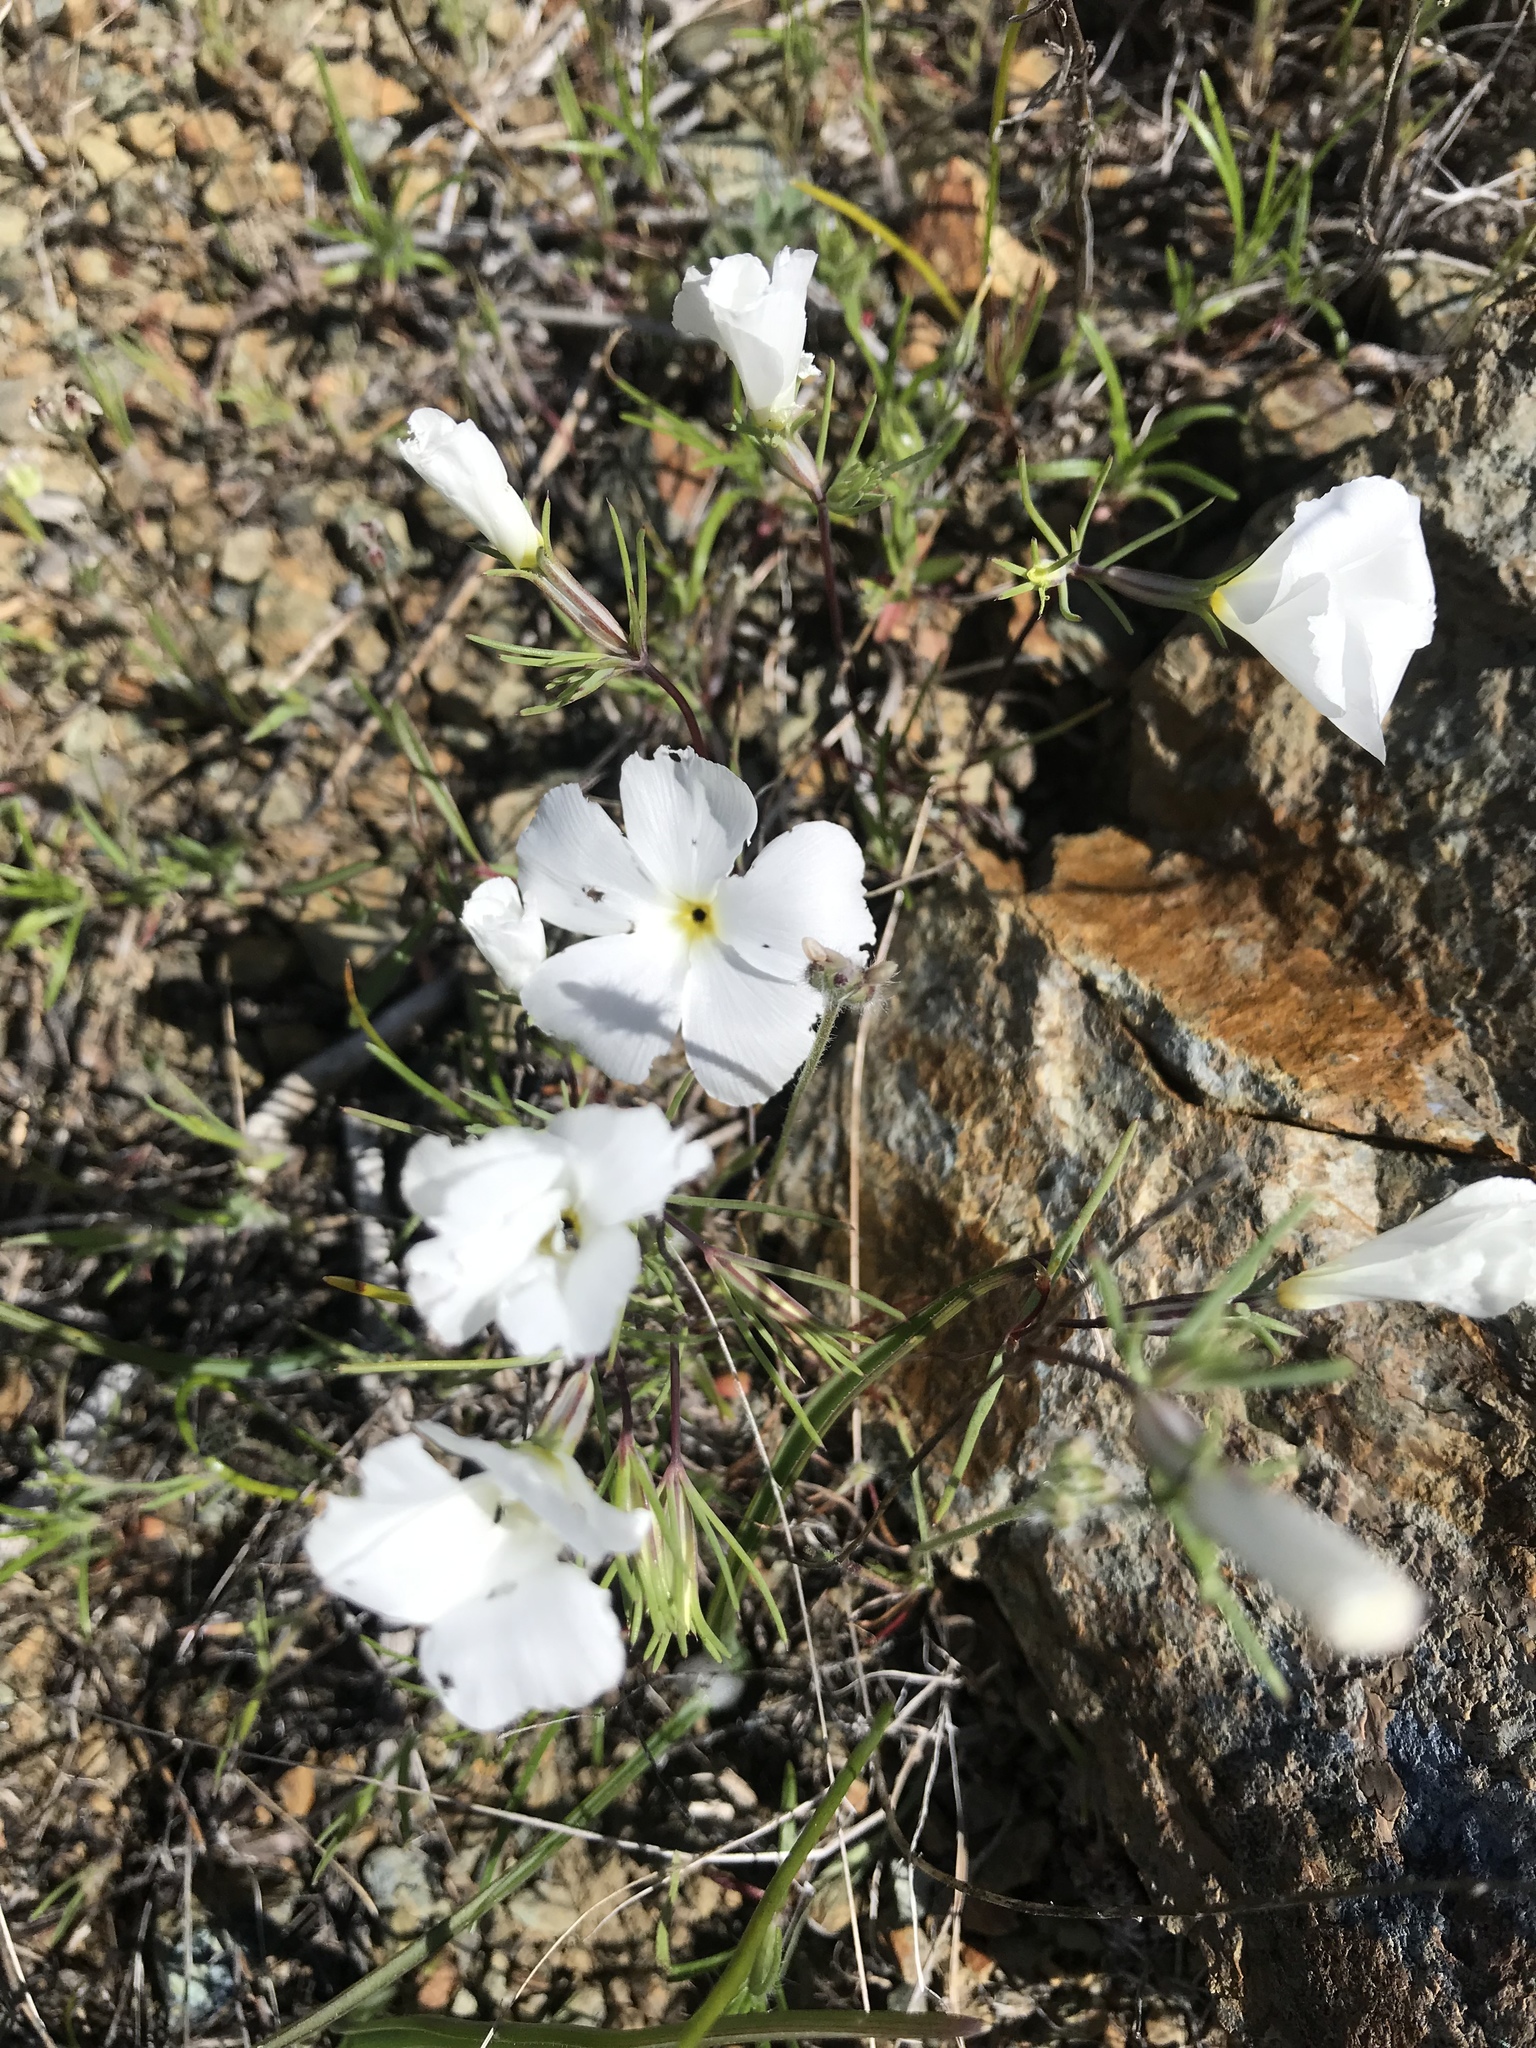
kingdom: Plantae
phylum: Tracheophyta
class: Magnoliopsida
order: Ericales
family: Polemoniaceae
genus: Linanthus
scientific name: Linanthus dichotomus
